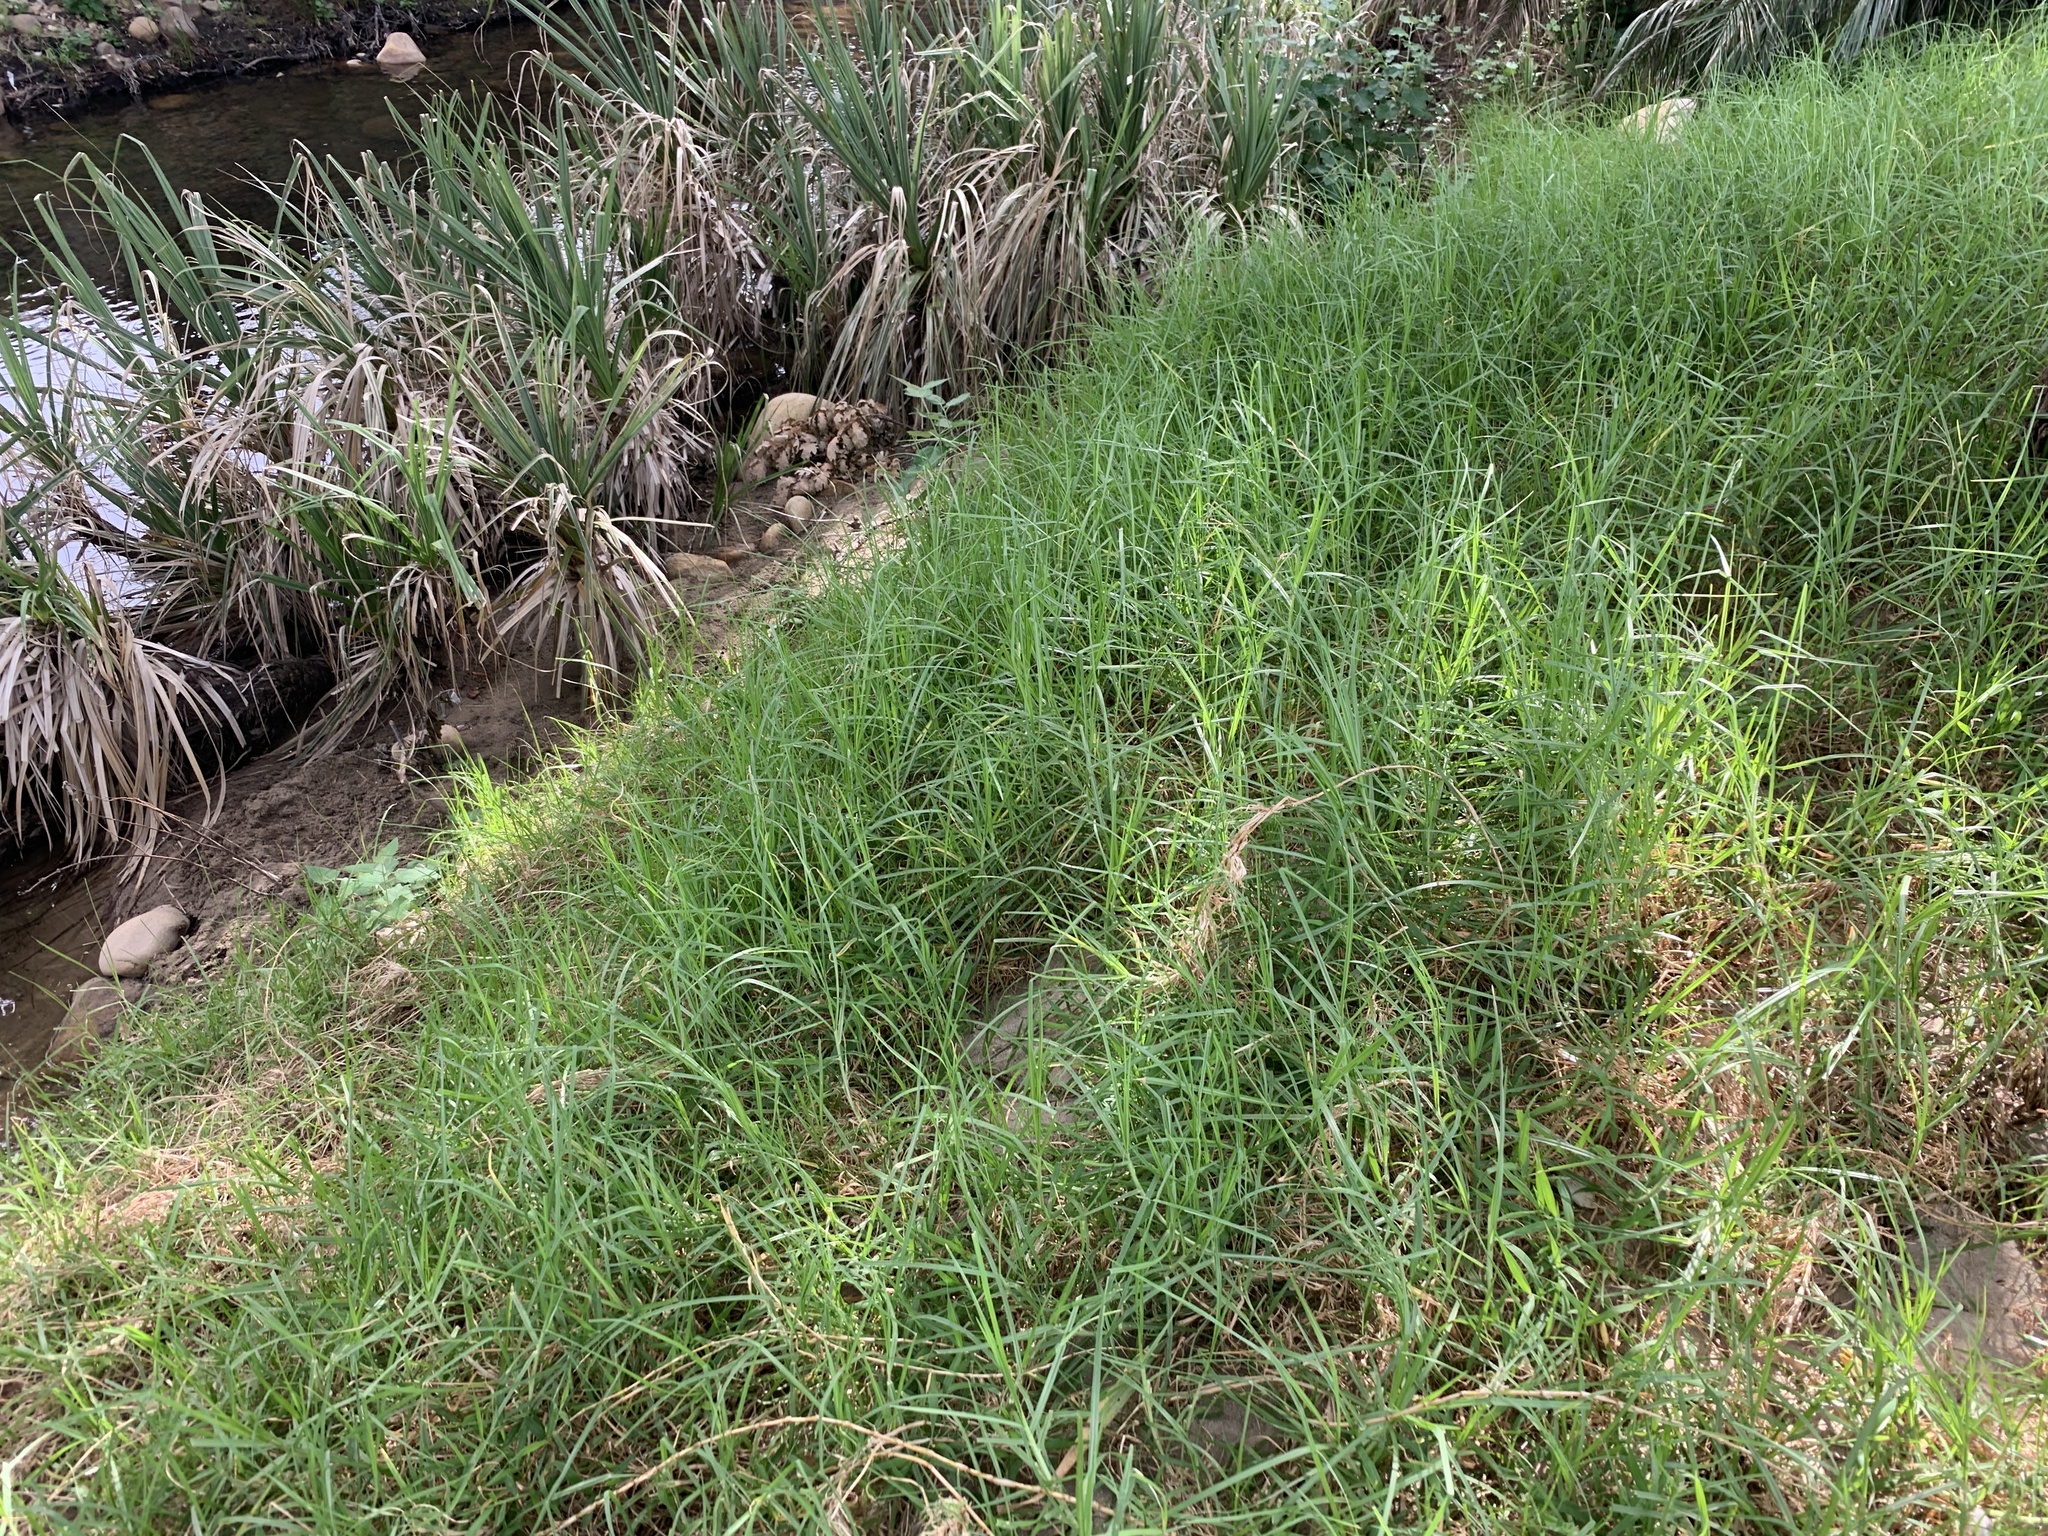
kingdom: Plantae
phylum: Tracheophyta
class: Liliopsida
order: Poales
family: Poaceae
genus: Cenchrus
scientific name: Cenchrus clandestinus
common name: Kikuyugrass
